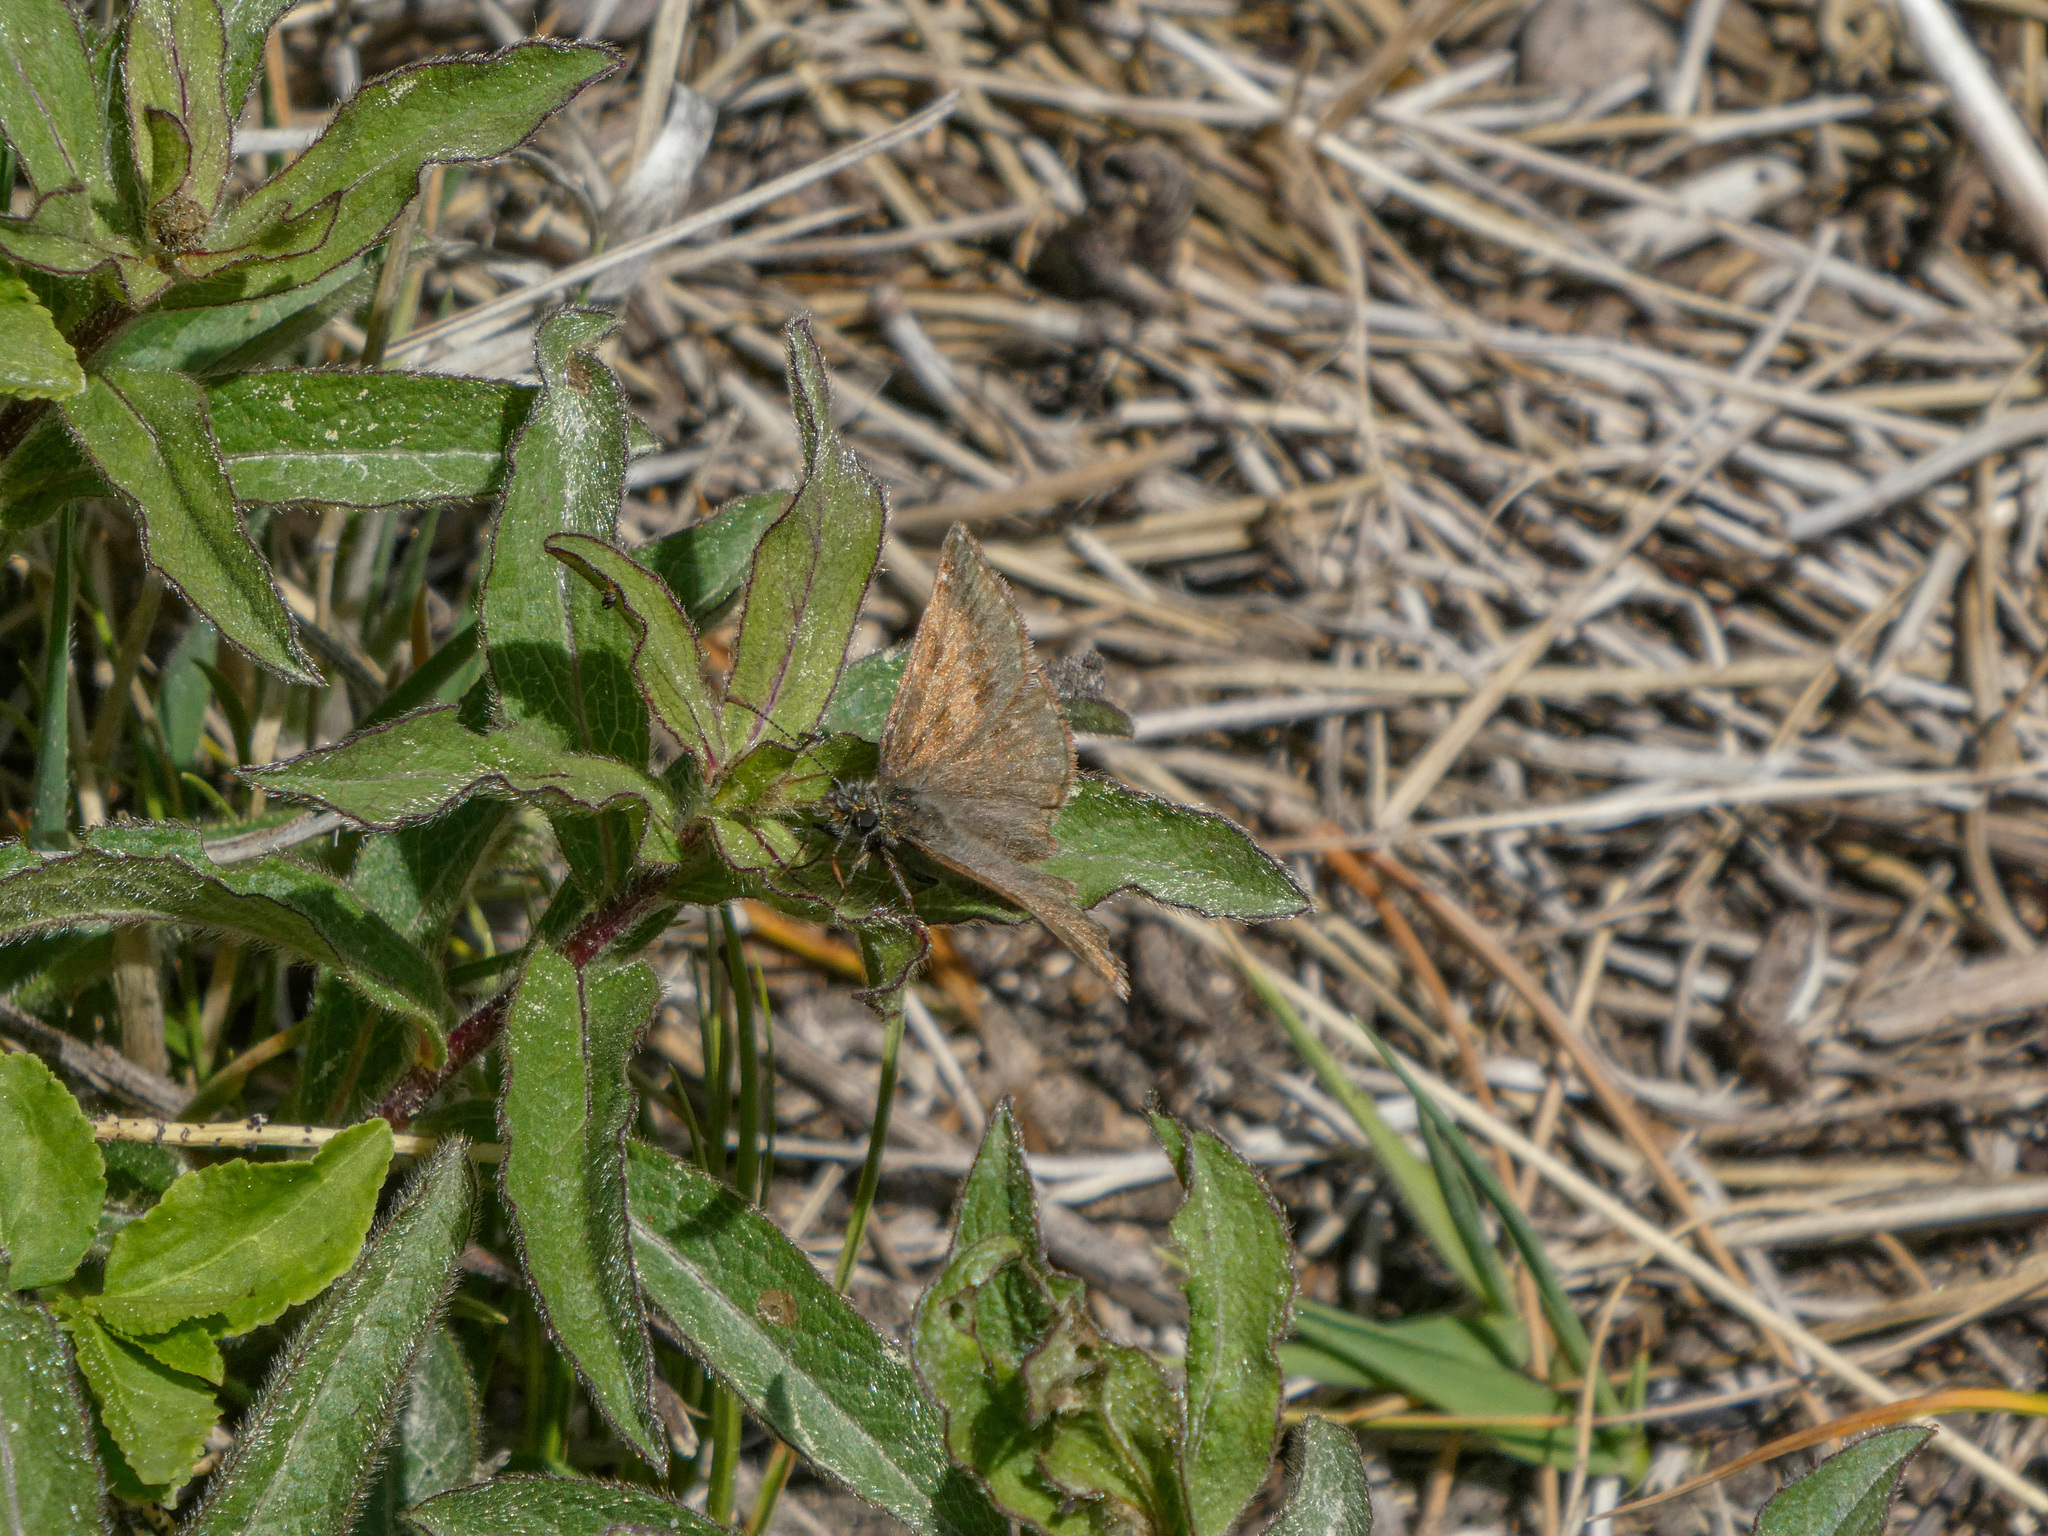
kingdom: Animalia
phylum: Arthropoda
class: Insecta
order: Lepidoptera
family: Hesperiidae
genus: Erynnis
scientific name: Erynnis tages
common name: Dingy skipper
